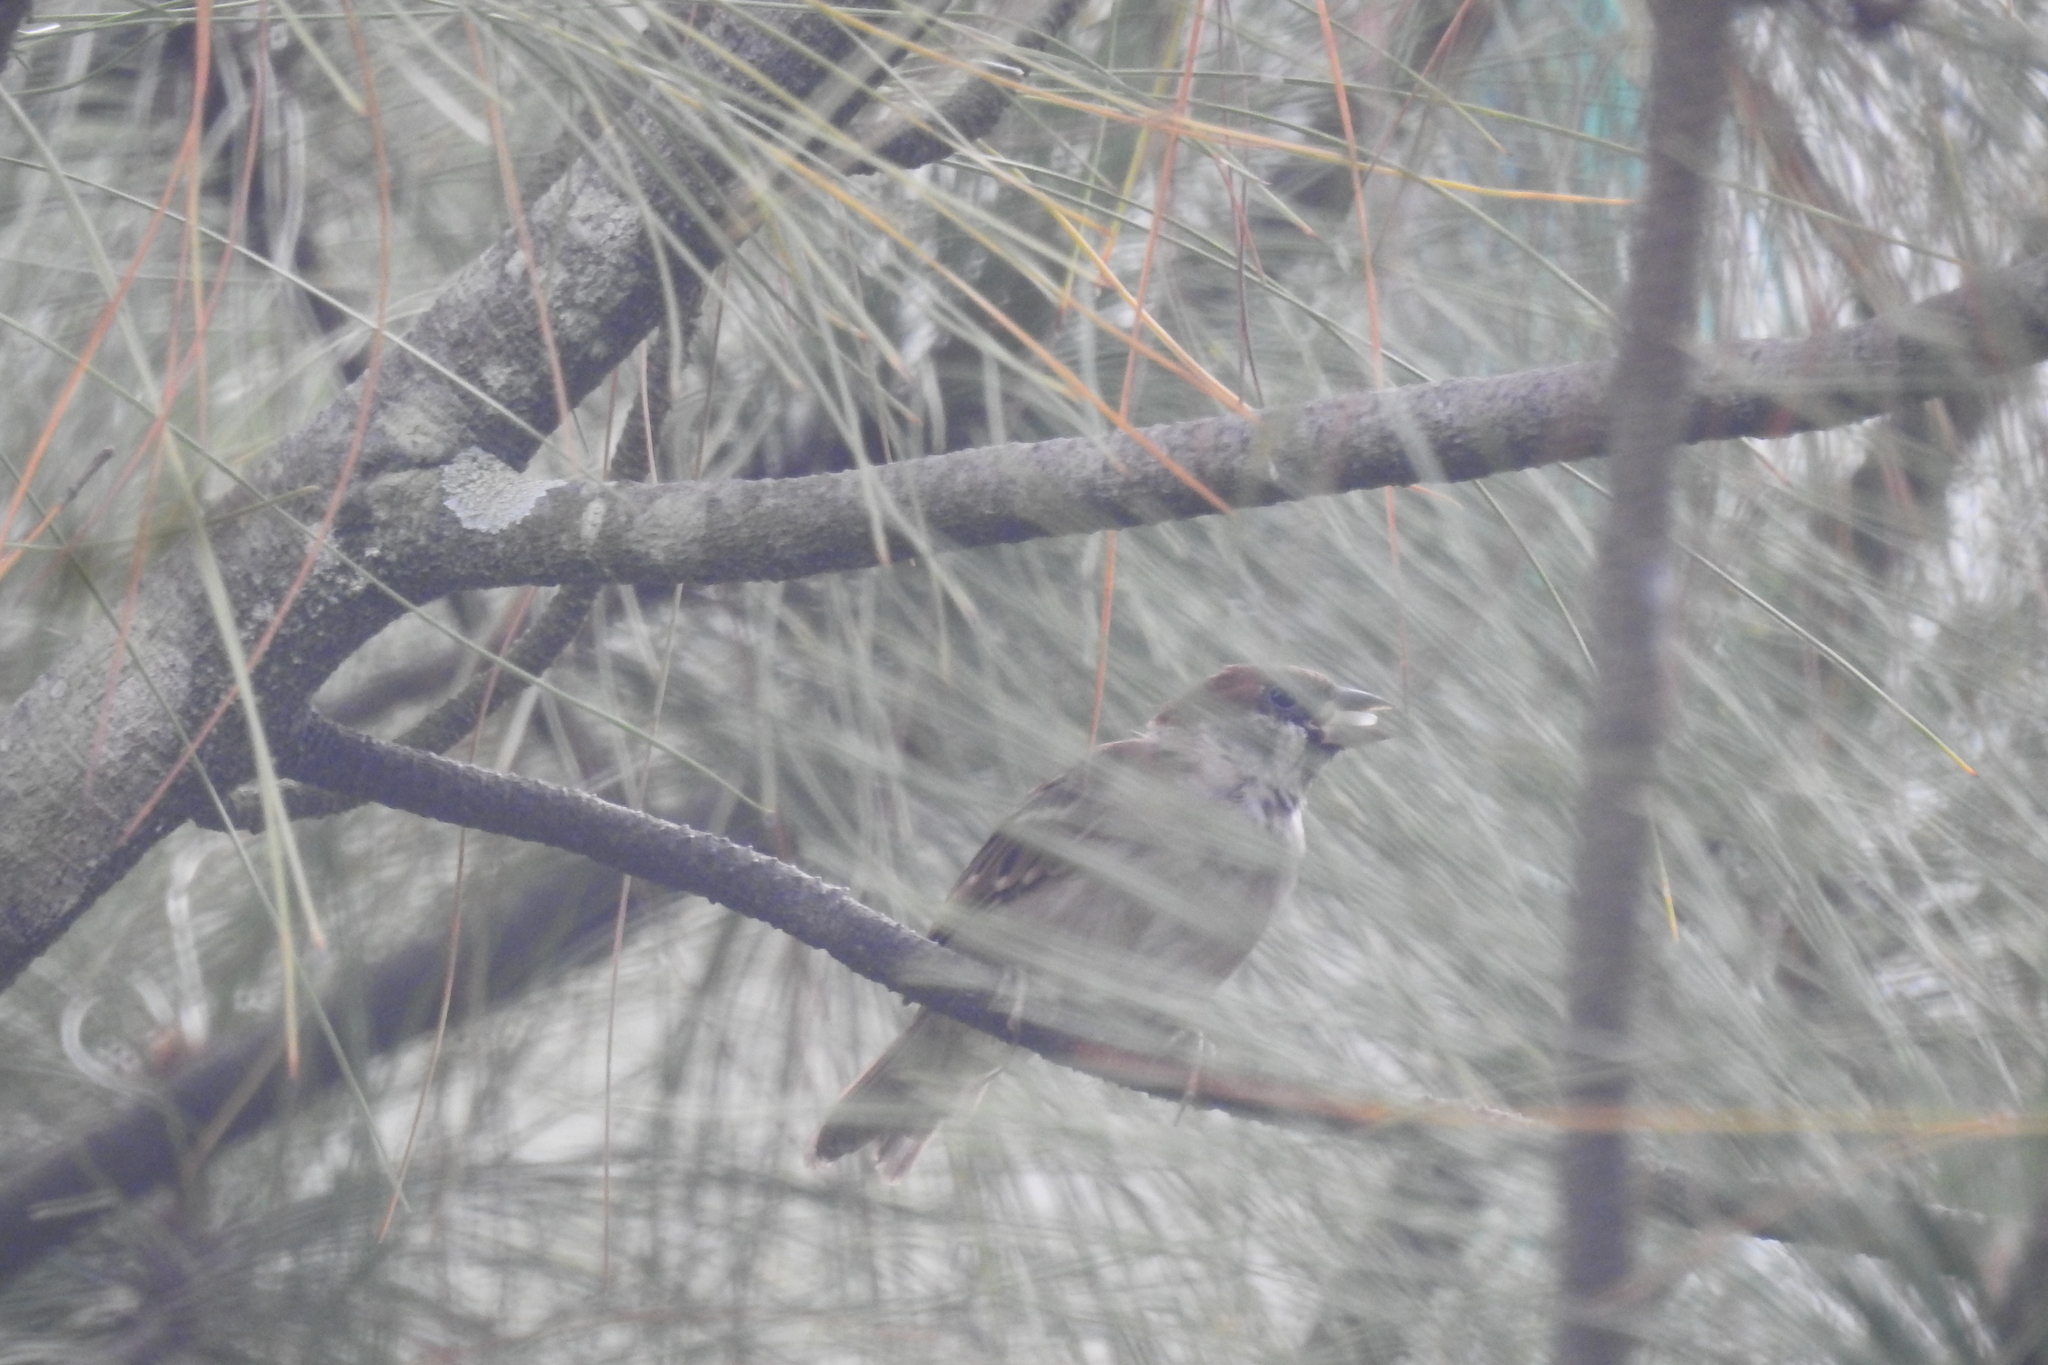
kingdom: Animalia
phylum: Chordata
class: Aves
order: Passeriformes
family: Passeridae
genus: Passer
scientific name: Passer montanus
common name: Eurasian tree sparrow
